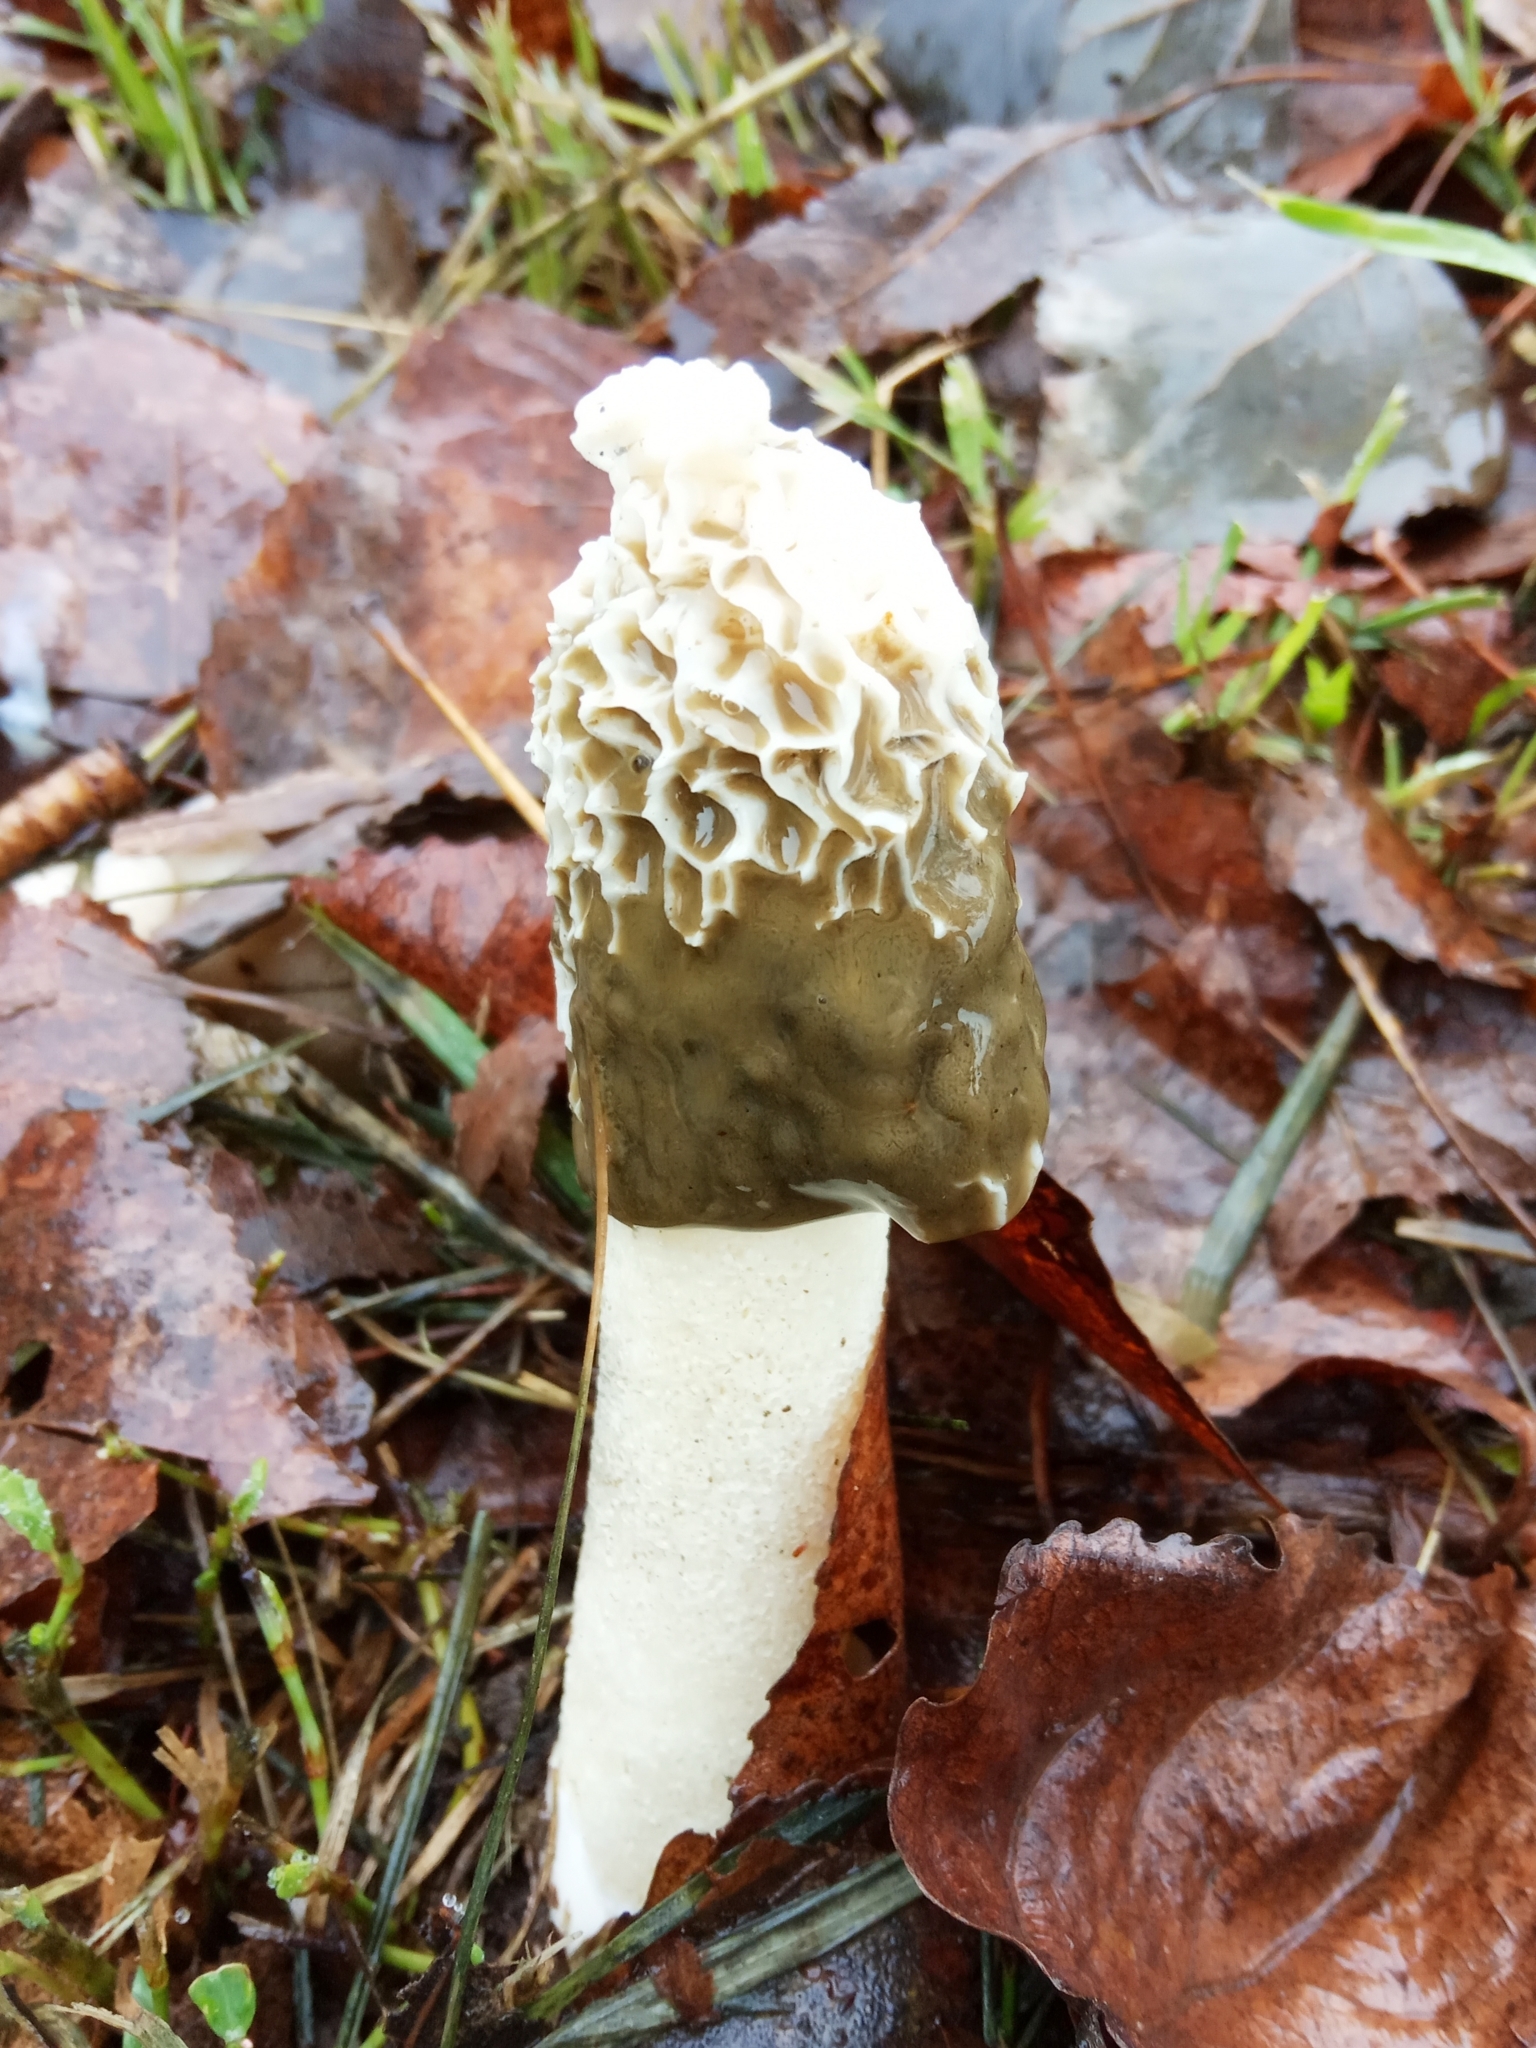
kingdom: Fungi
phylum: Basidiomycota
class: Agaricomycetes
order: Phallales
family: Phallaceae
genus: Phallus
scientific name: Phallus impudicus
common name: Common stinkhorn
